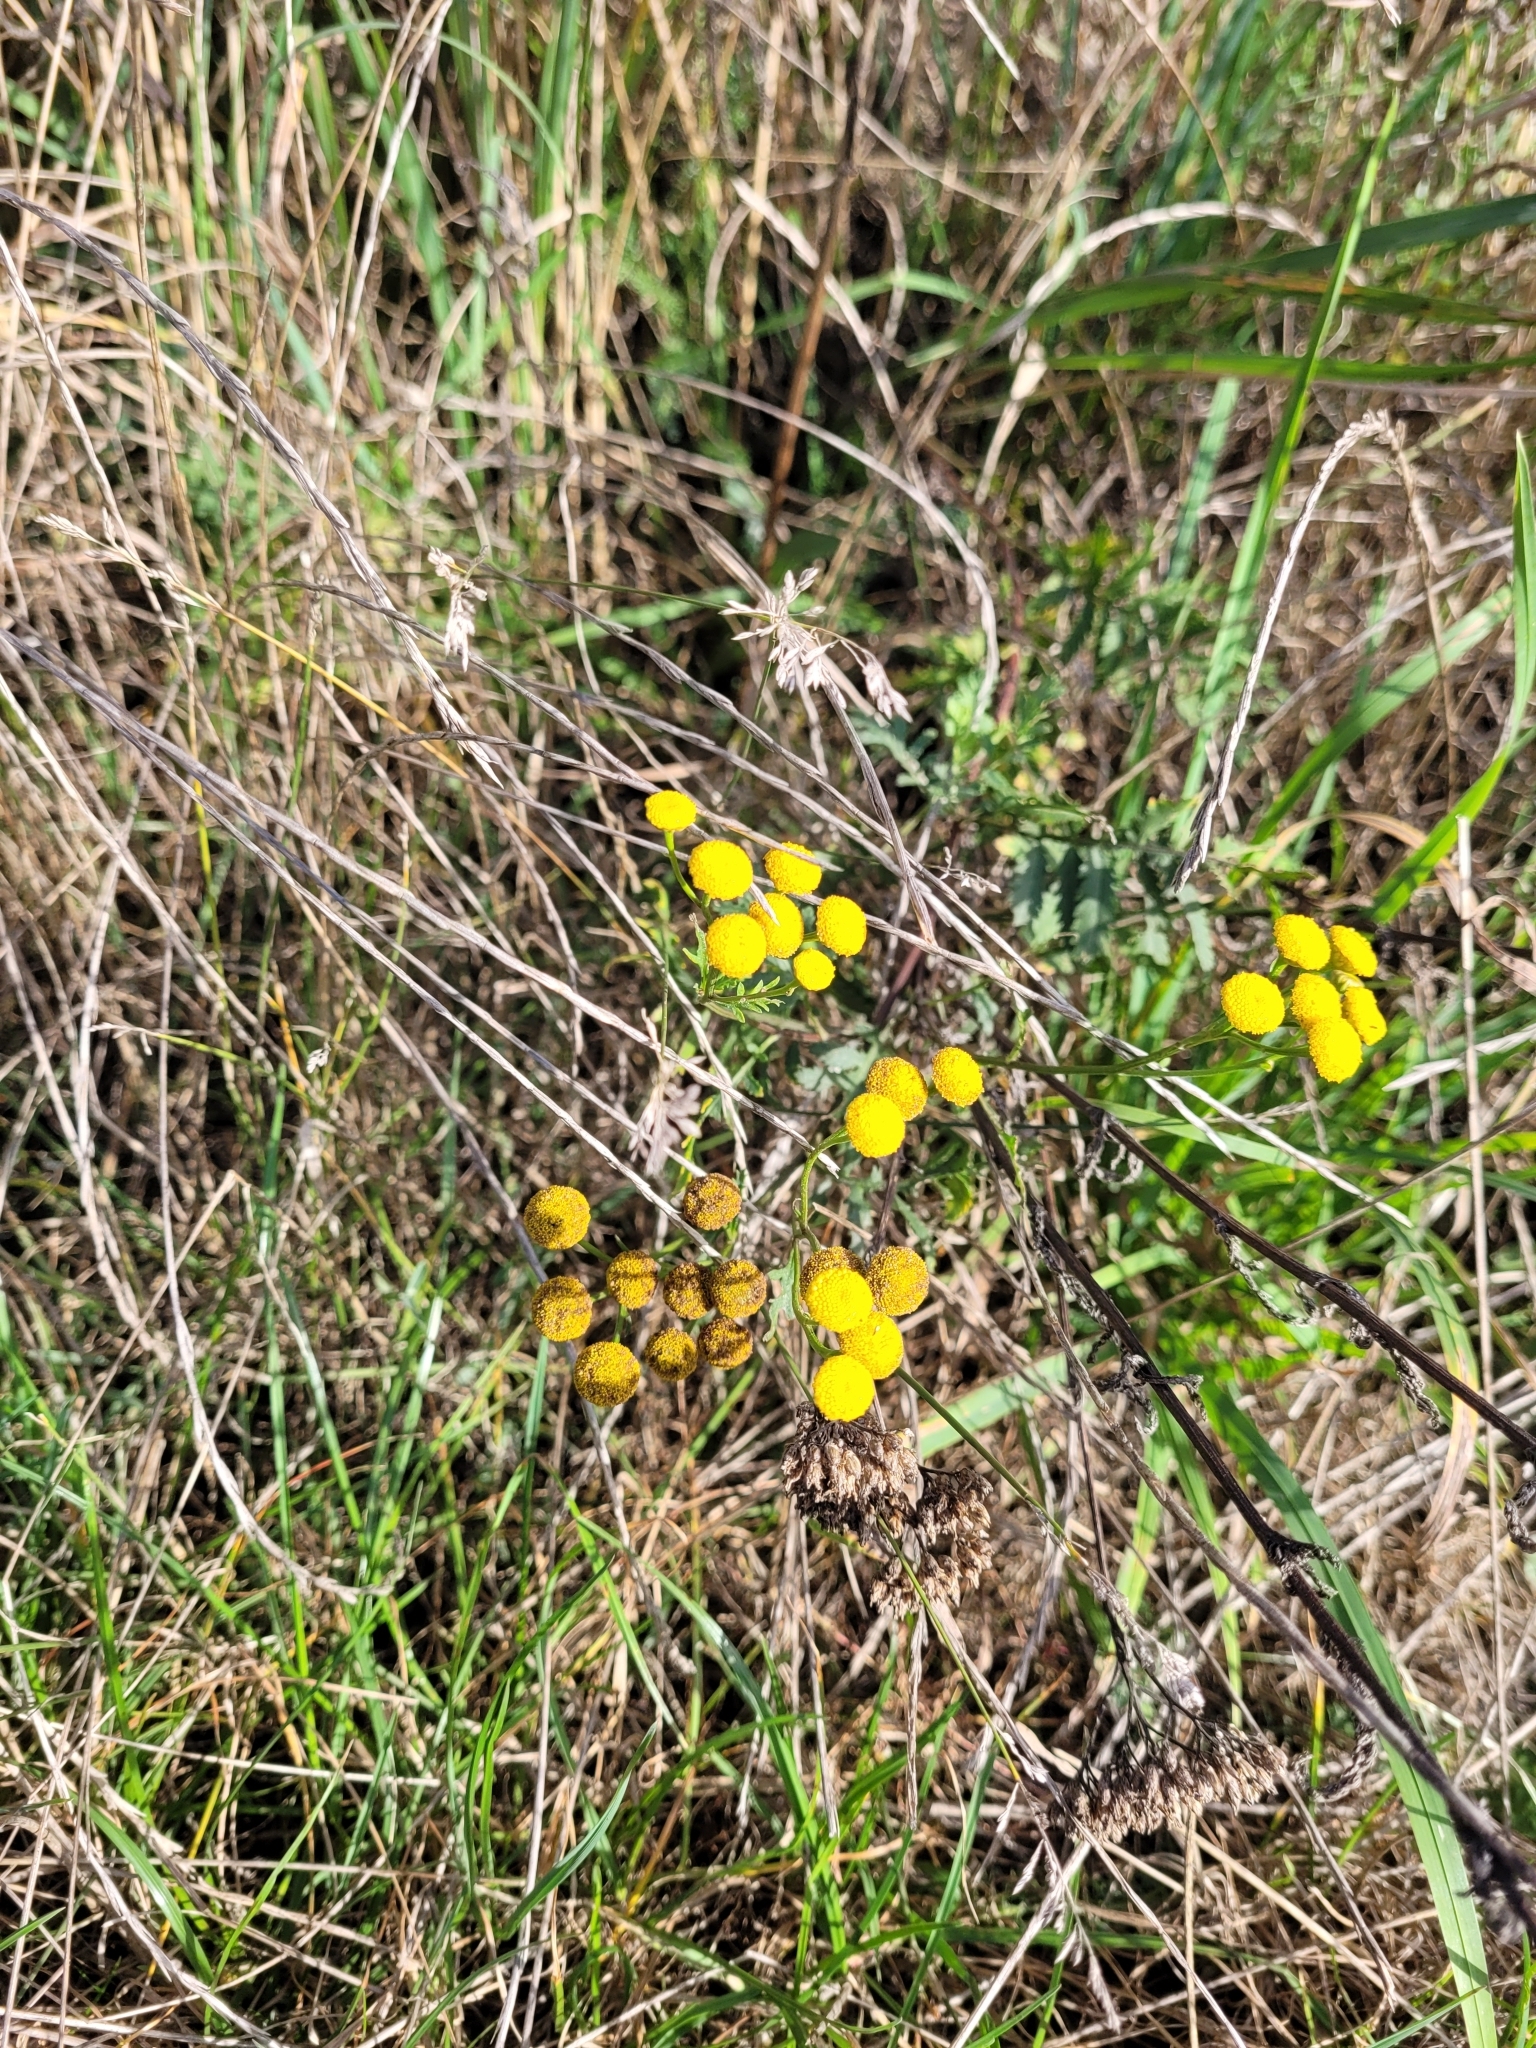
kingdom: Plantae
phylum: Tracheophyta
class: Magnoliopsida
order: Asterales
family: Asteraceae
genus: Tanacetum
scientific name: Tanacetum vulgare
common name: Common tansy
